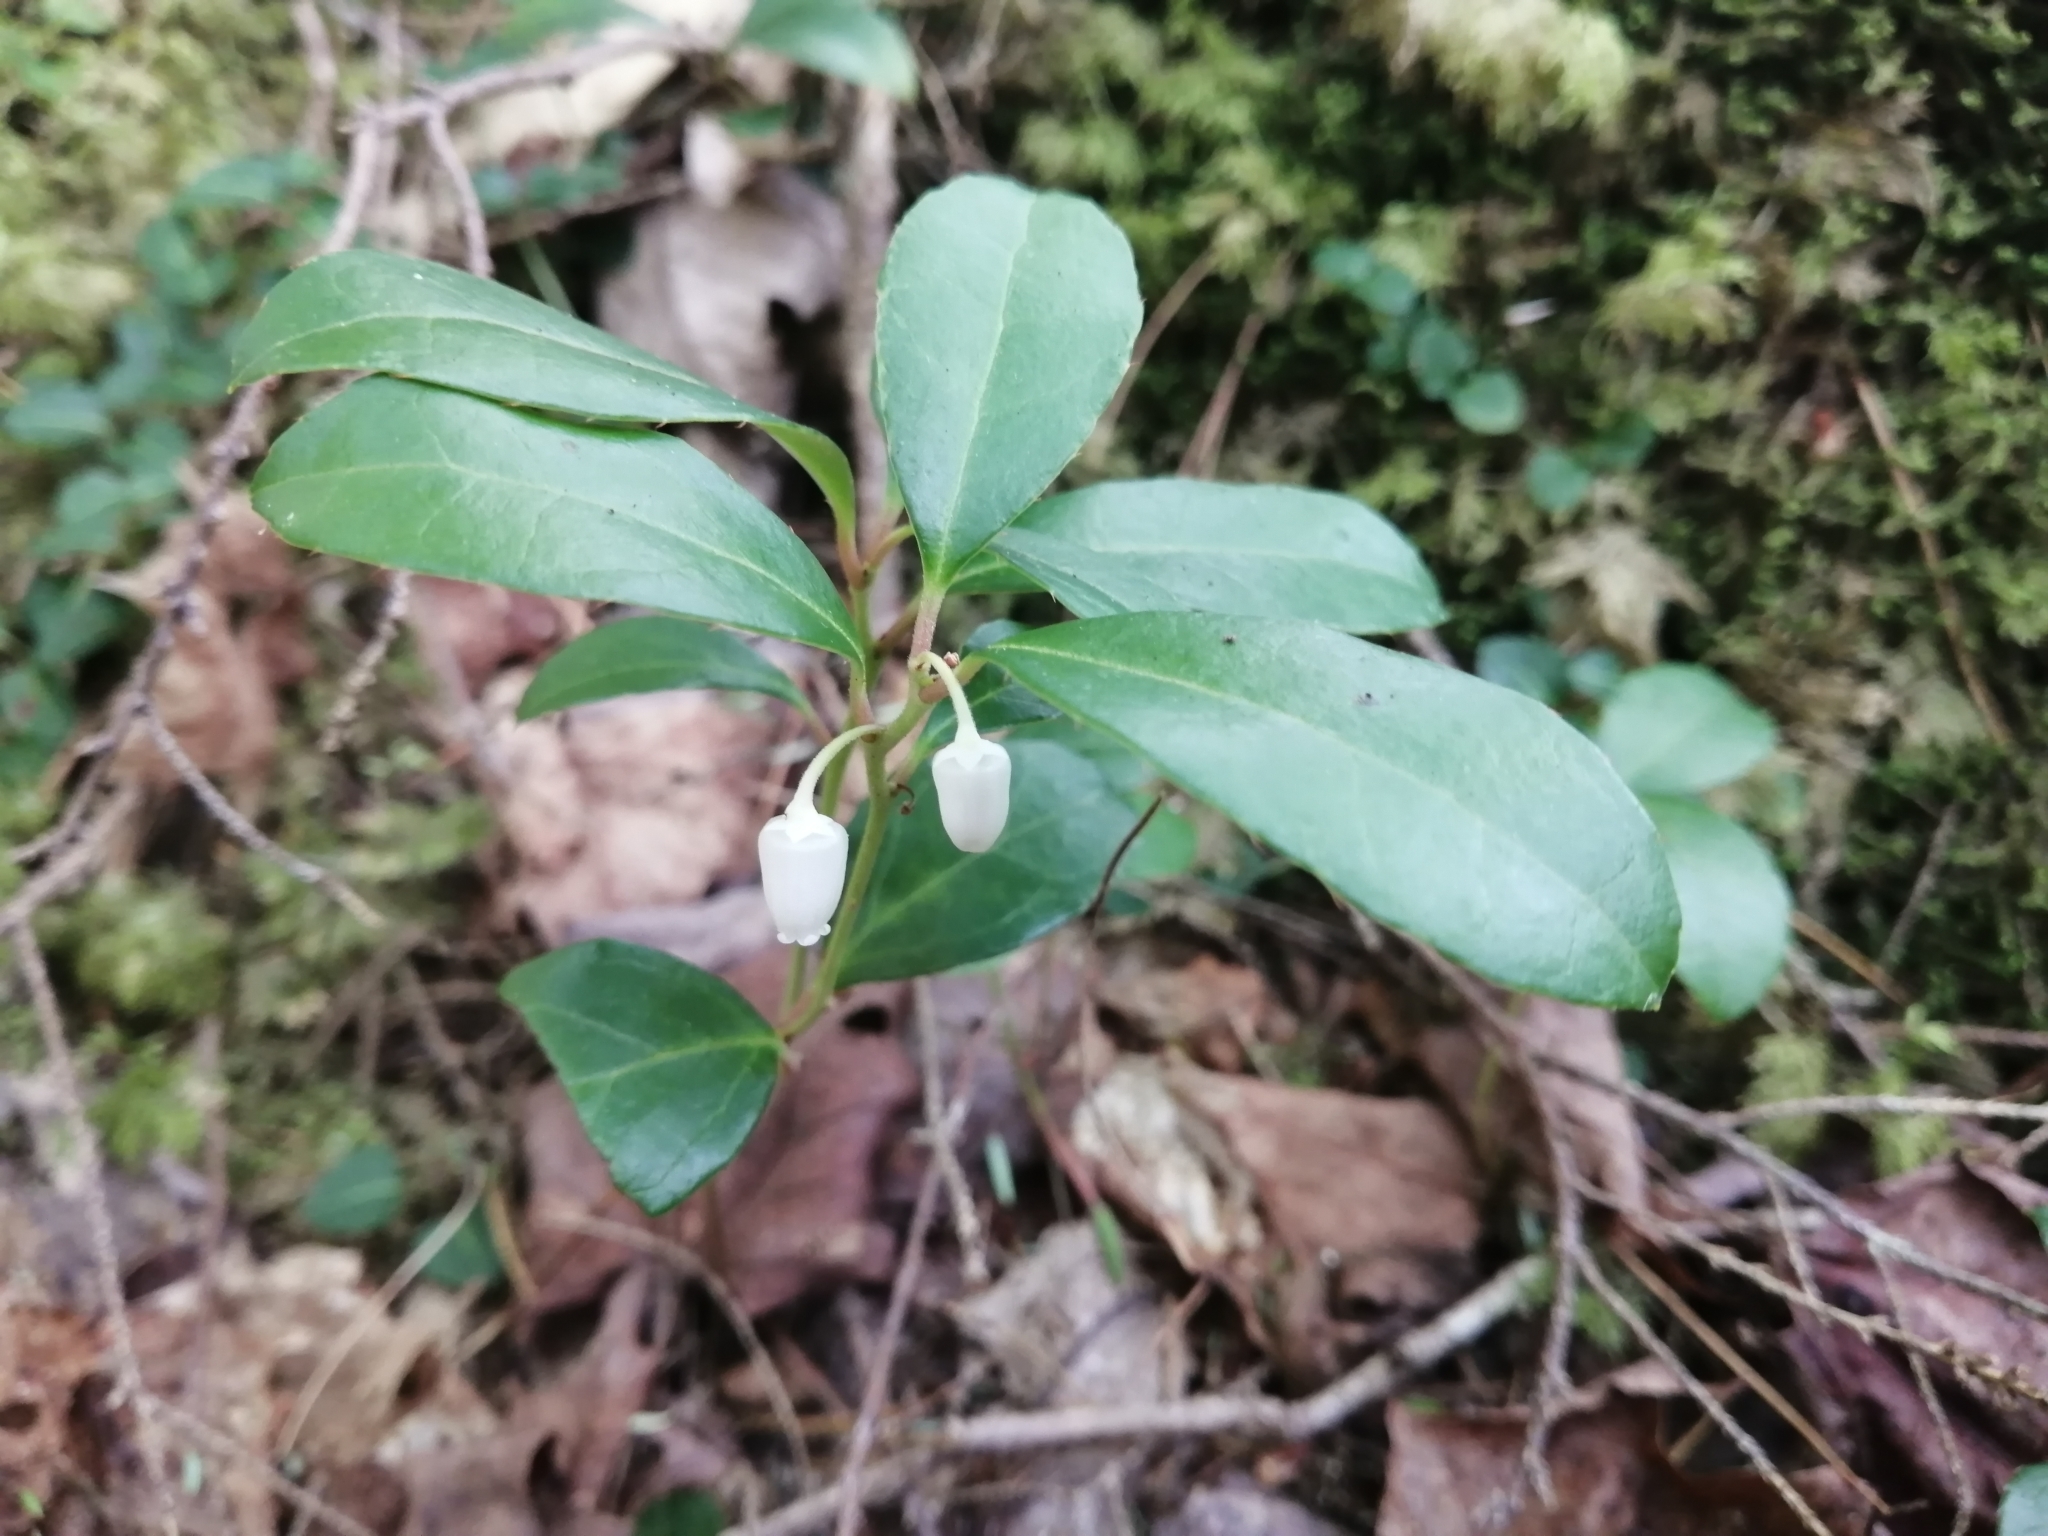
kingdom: Plantae
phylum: Tracheophyta
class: Magnoliopsida
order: Ericales
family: Ericaceae
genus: Gaultheria
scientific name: Gaultheria procumbens
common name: Checkerberry
